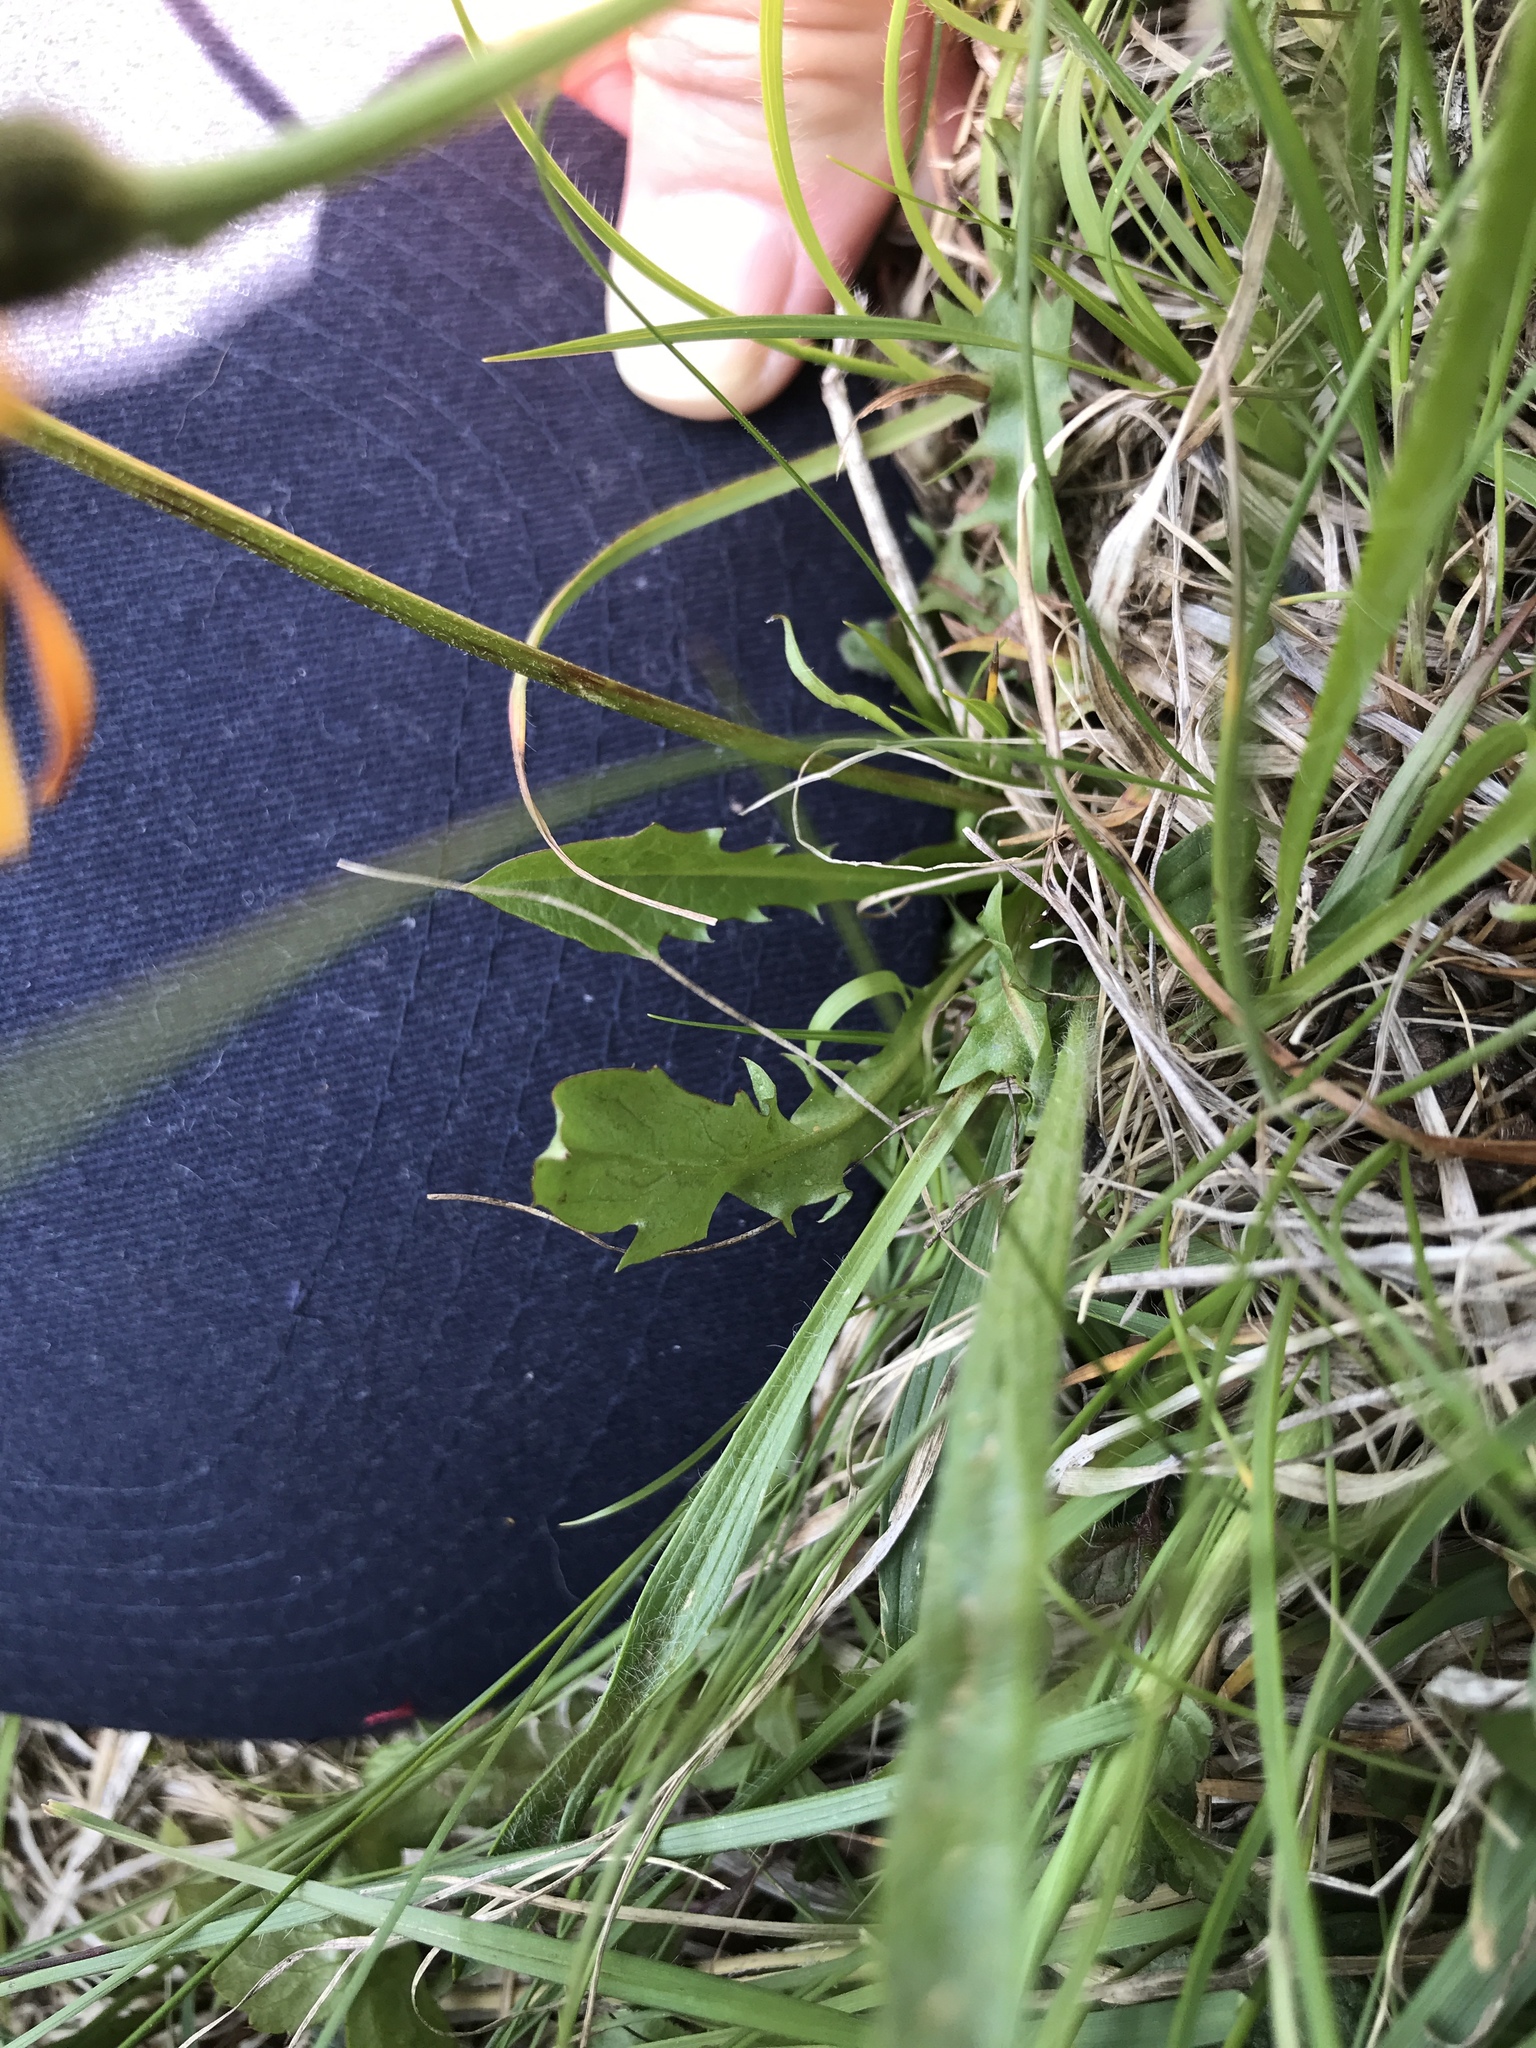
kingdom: Plantae
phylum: Tracheophyta
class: Magnoliopsida
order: Asterales
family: Asteraceae
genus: Crepis
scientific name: Crepis aurea
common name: Golden hawk's-beard
